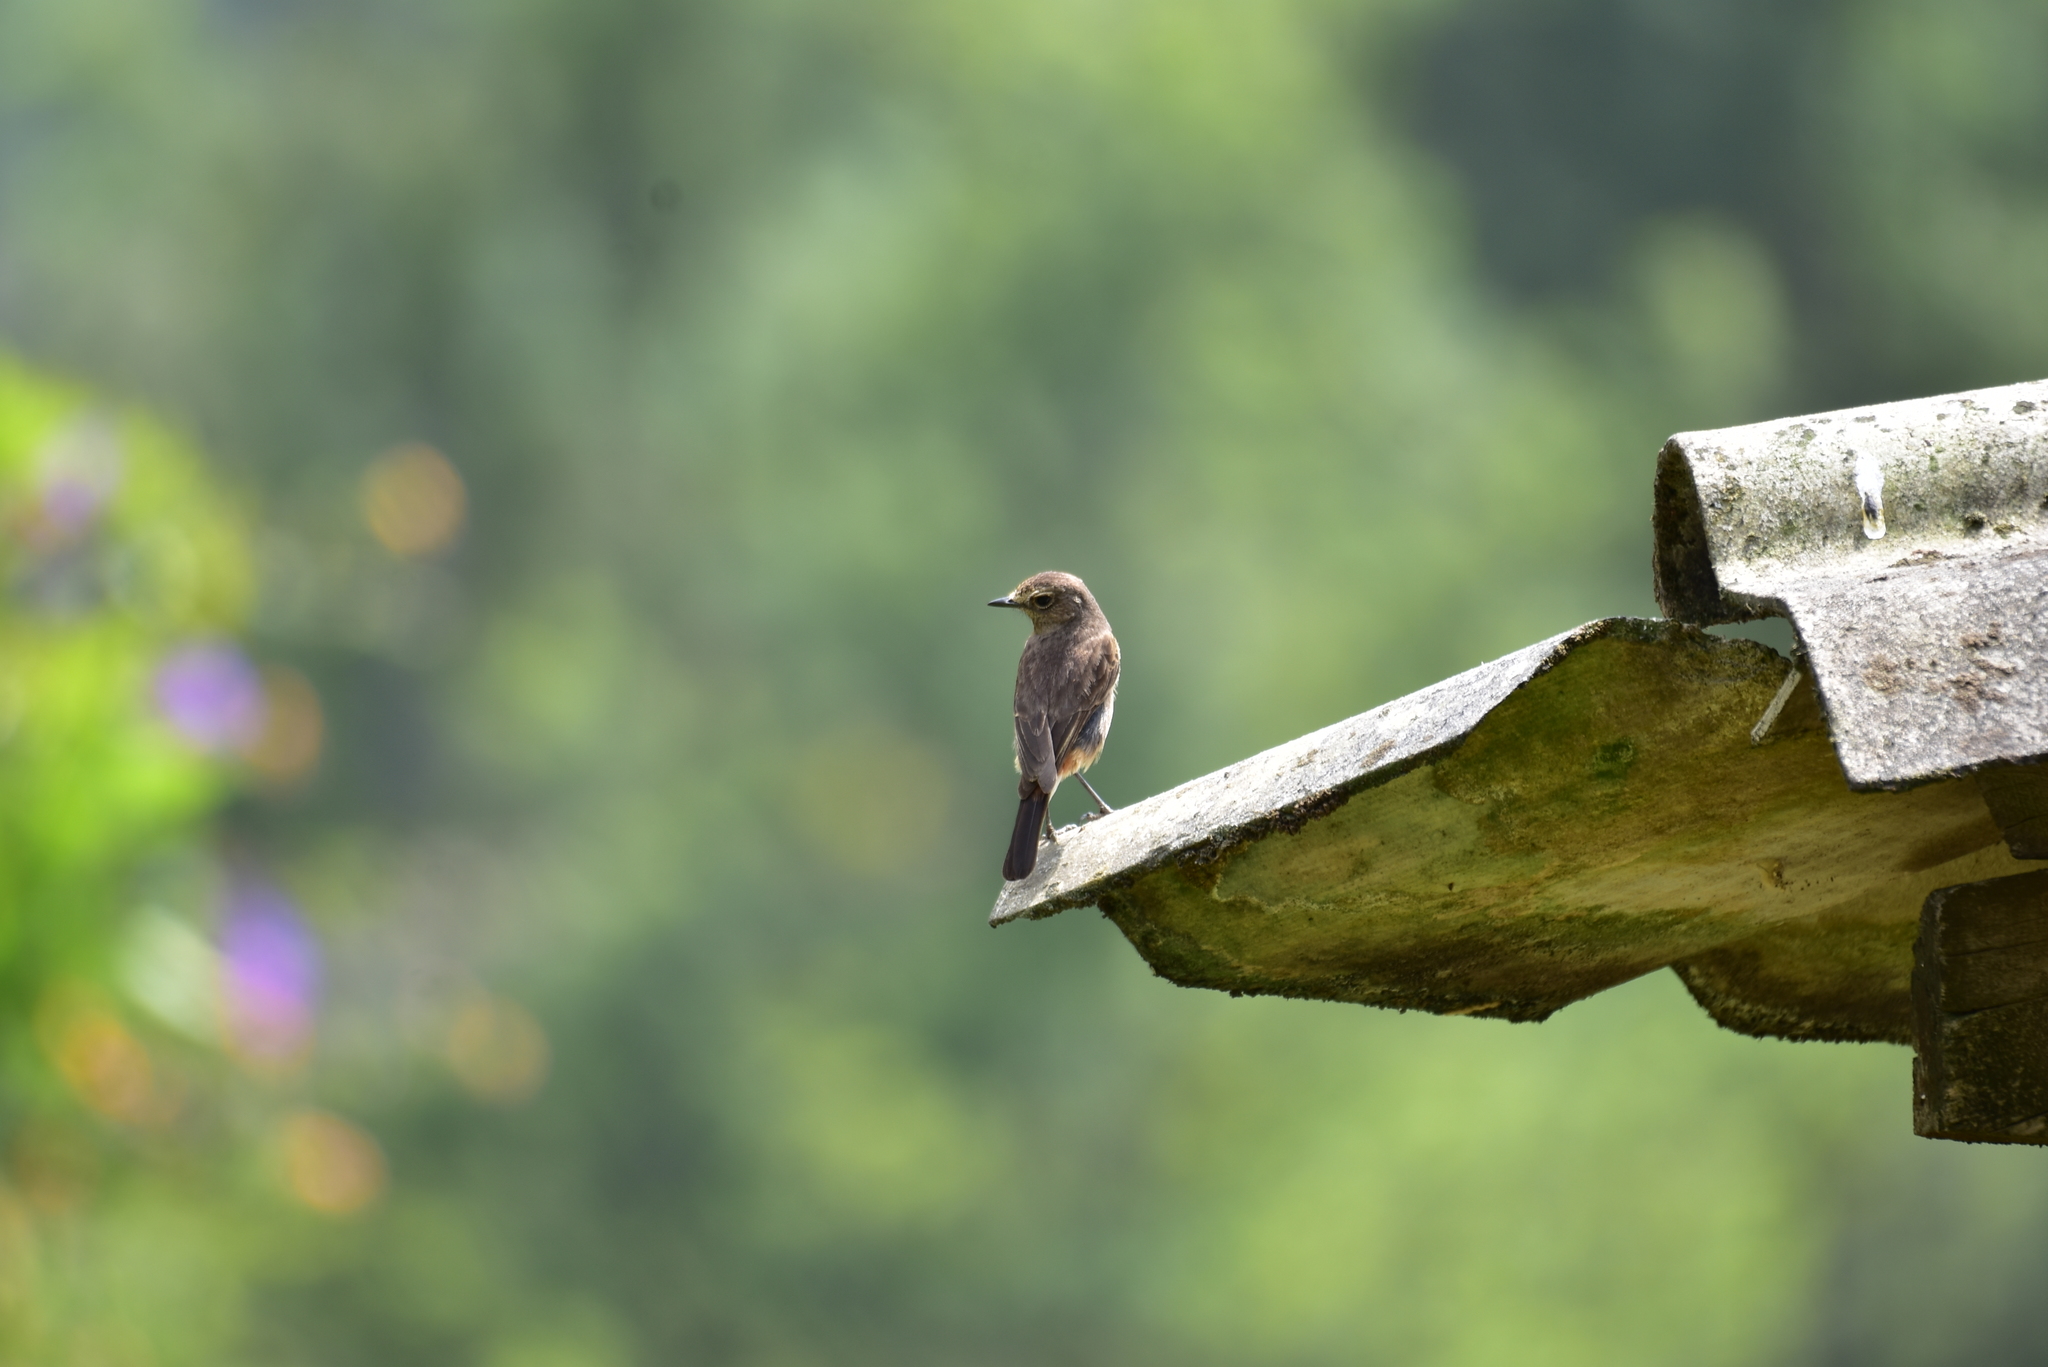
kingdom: Animalia
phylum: Chordata
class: Aves
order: Passeriformes
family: Muscicapidae
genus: Saxicola
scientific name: Saxicola caprata
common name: Pied bush chat
